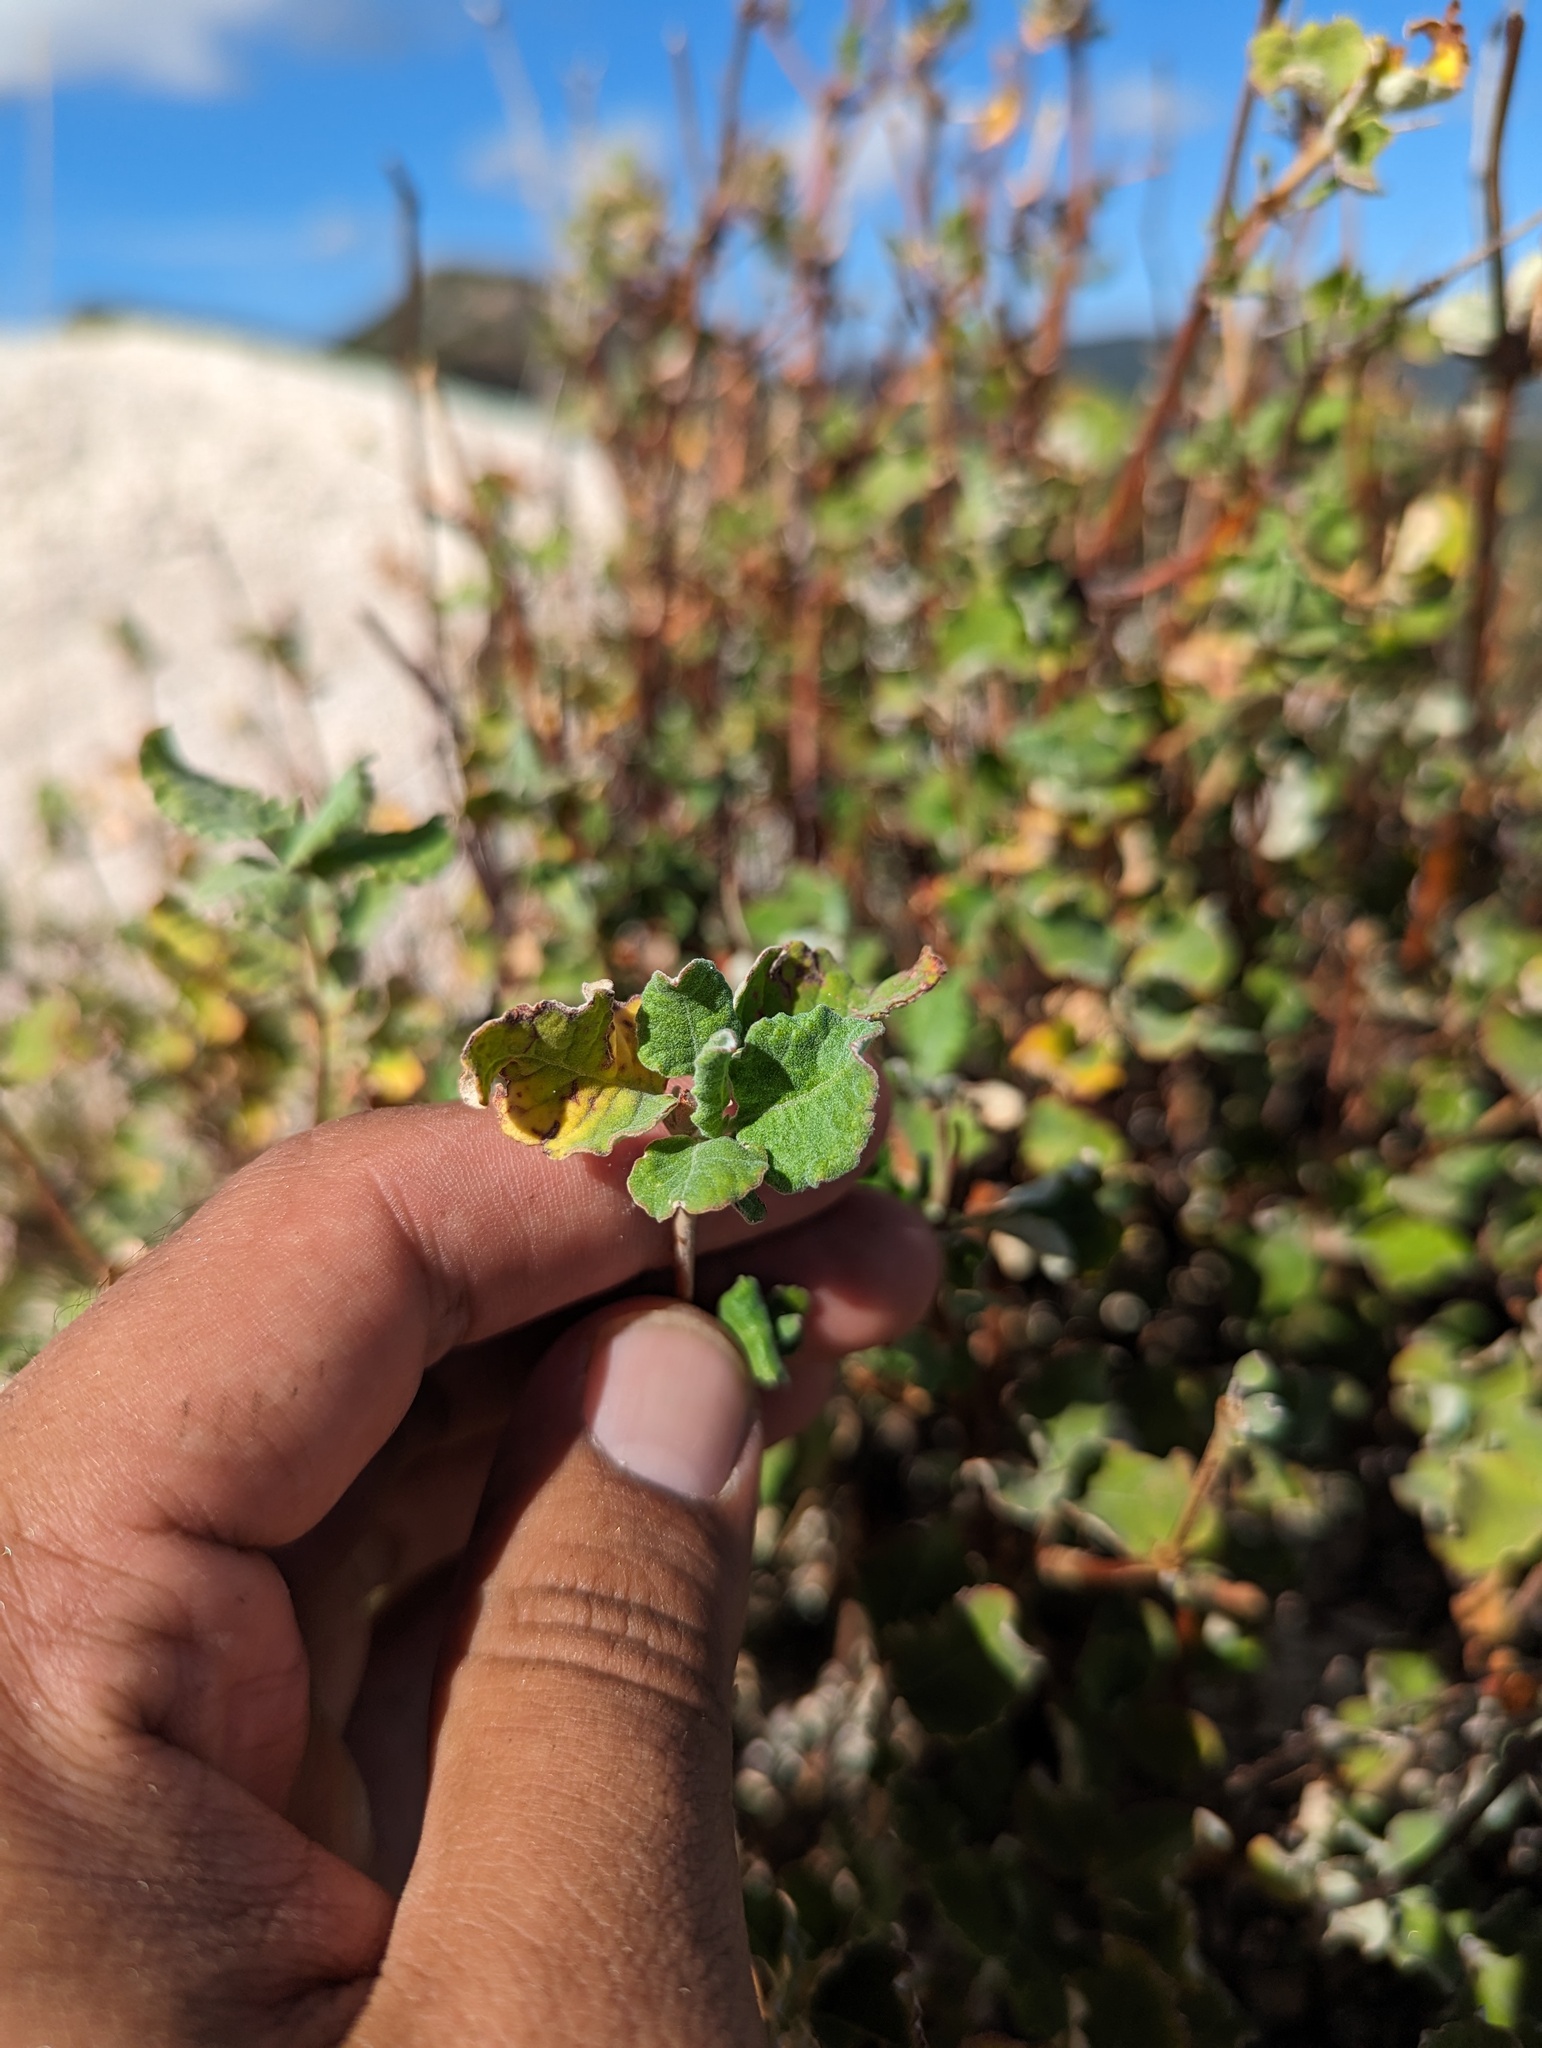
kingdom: Plantae
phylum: Tracheophyta
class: Magnoliopsida
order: Caryophyllales
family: Polygonaceae
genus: Eriogonum
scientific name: Eriogonum calaverense
